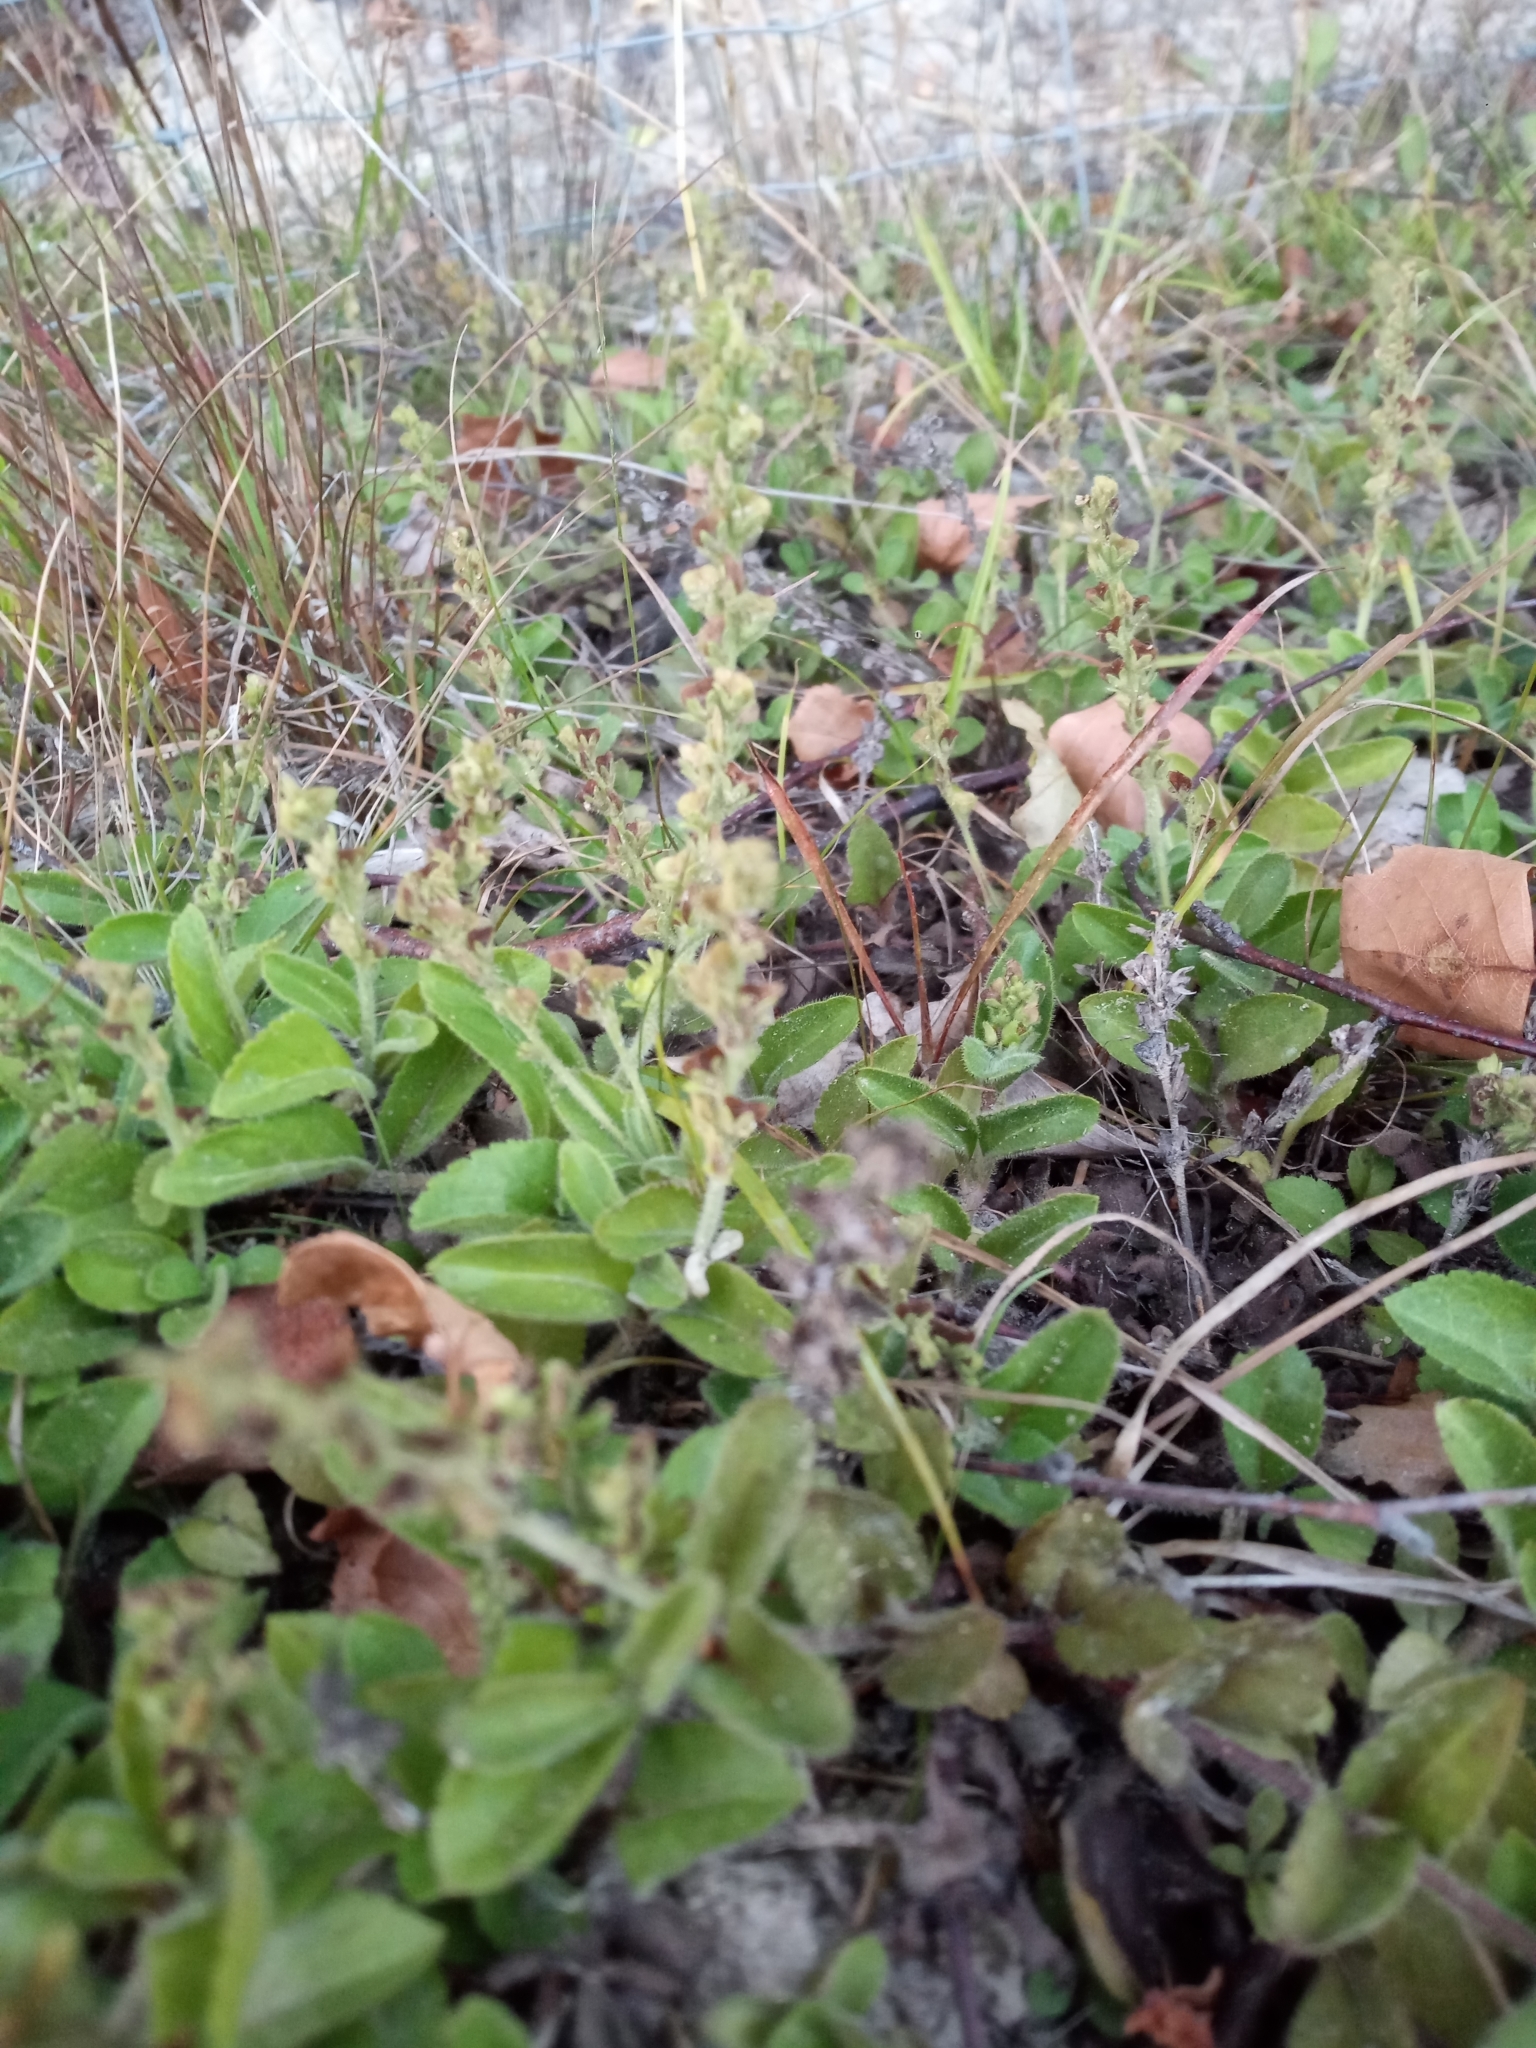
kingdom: Plantae
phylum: Tracheophyta
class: Magnoliopsida
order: Lamiales
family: Plantaginaceae
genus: Veronica
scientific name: Veronica officinalis
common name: Common speedwell
